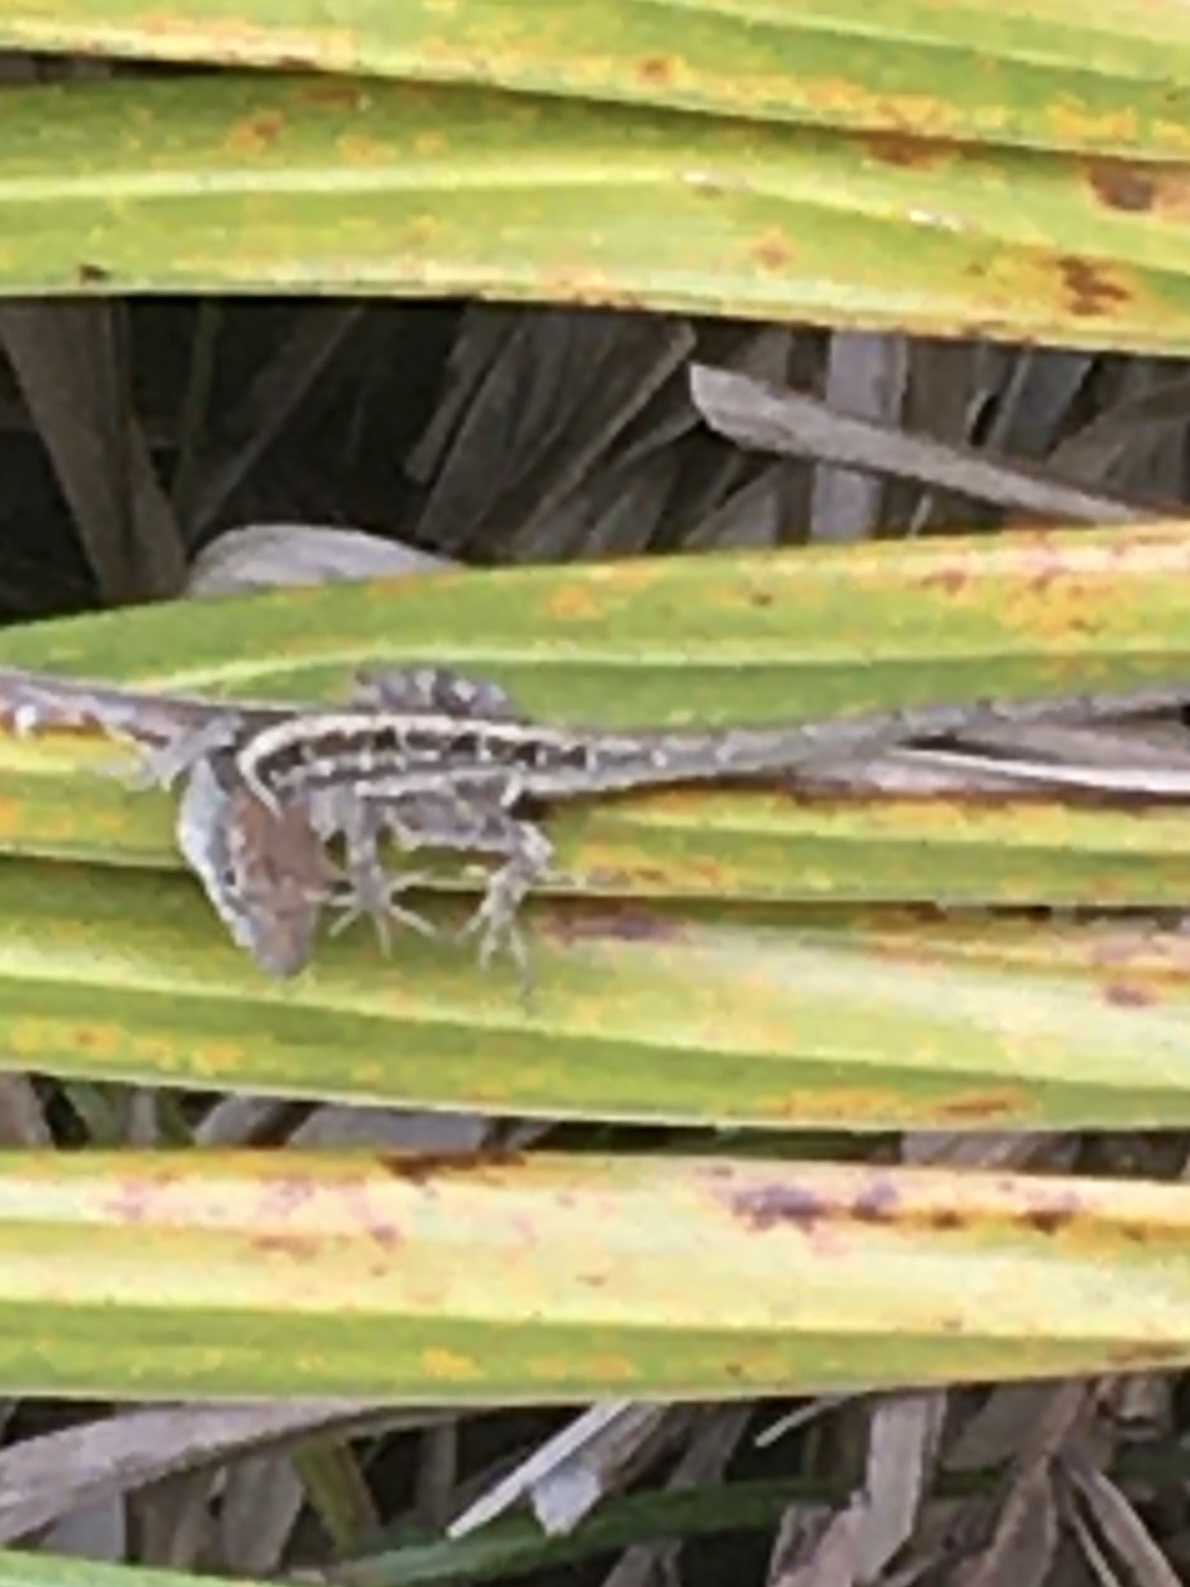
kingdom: Animalia
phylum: Chordata
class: Squamata
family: Dactyloidae
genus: Anolis
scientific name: Anolis sagrei
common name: Brown anole
